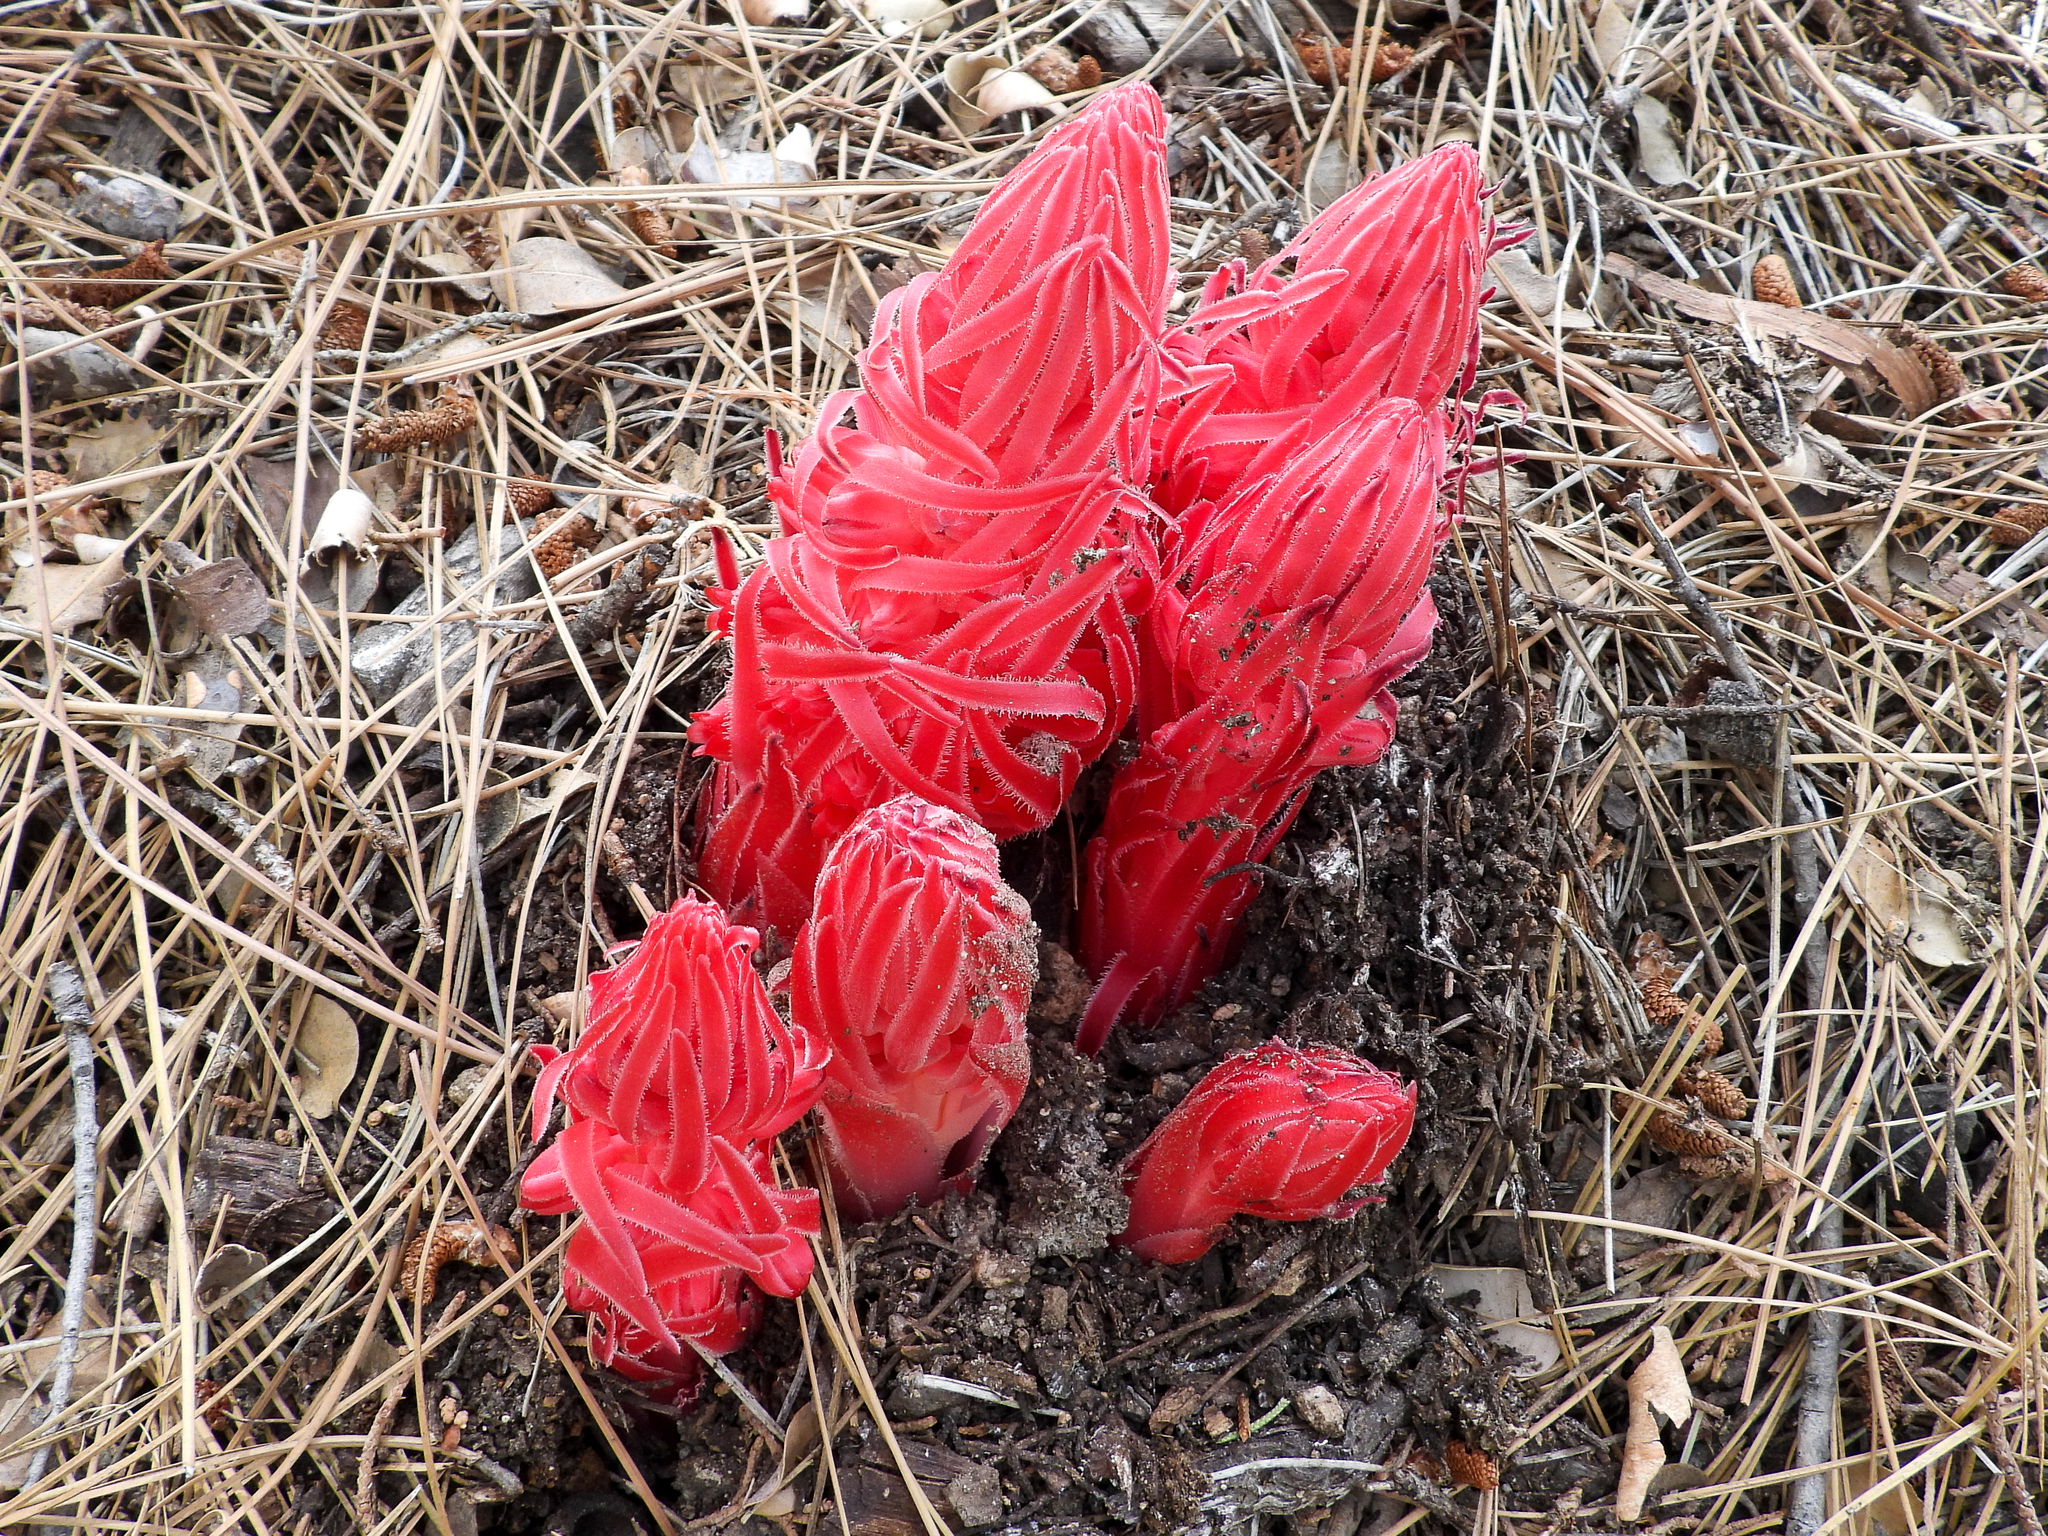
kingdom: Plantae
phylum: Tracheophyta
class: Magnoliopsida
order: Ericales
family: Ericaceae
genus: Sarcodes
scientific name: Sarcodes sanguinea
